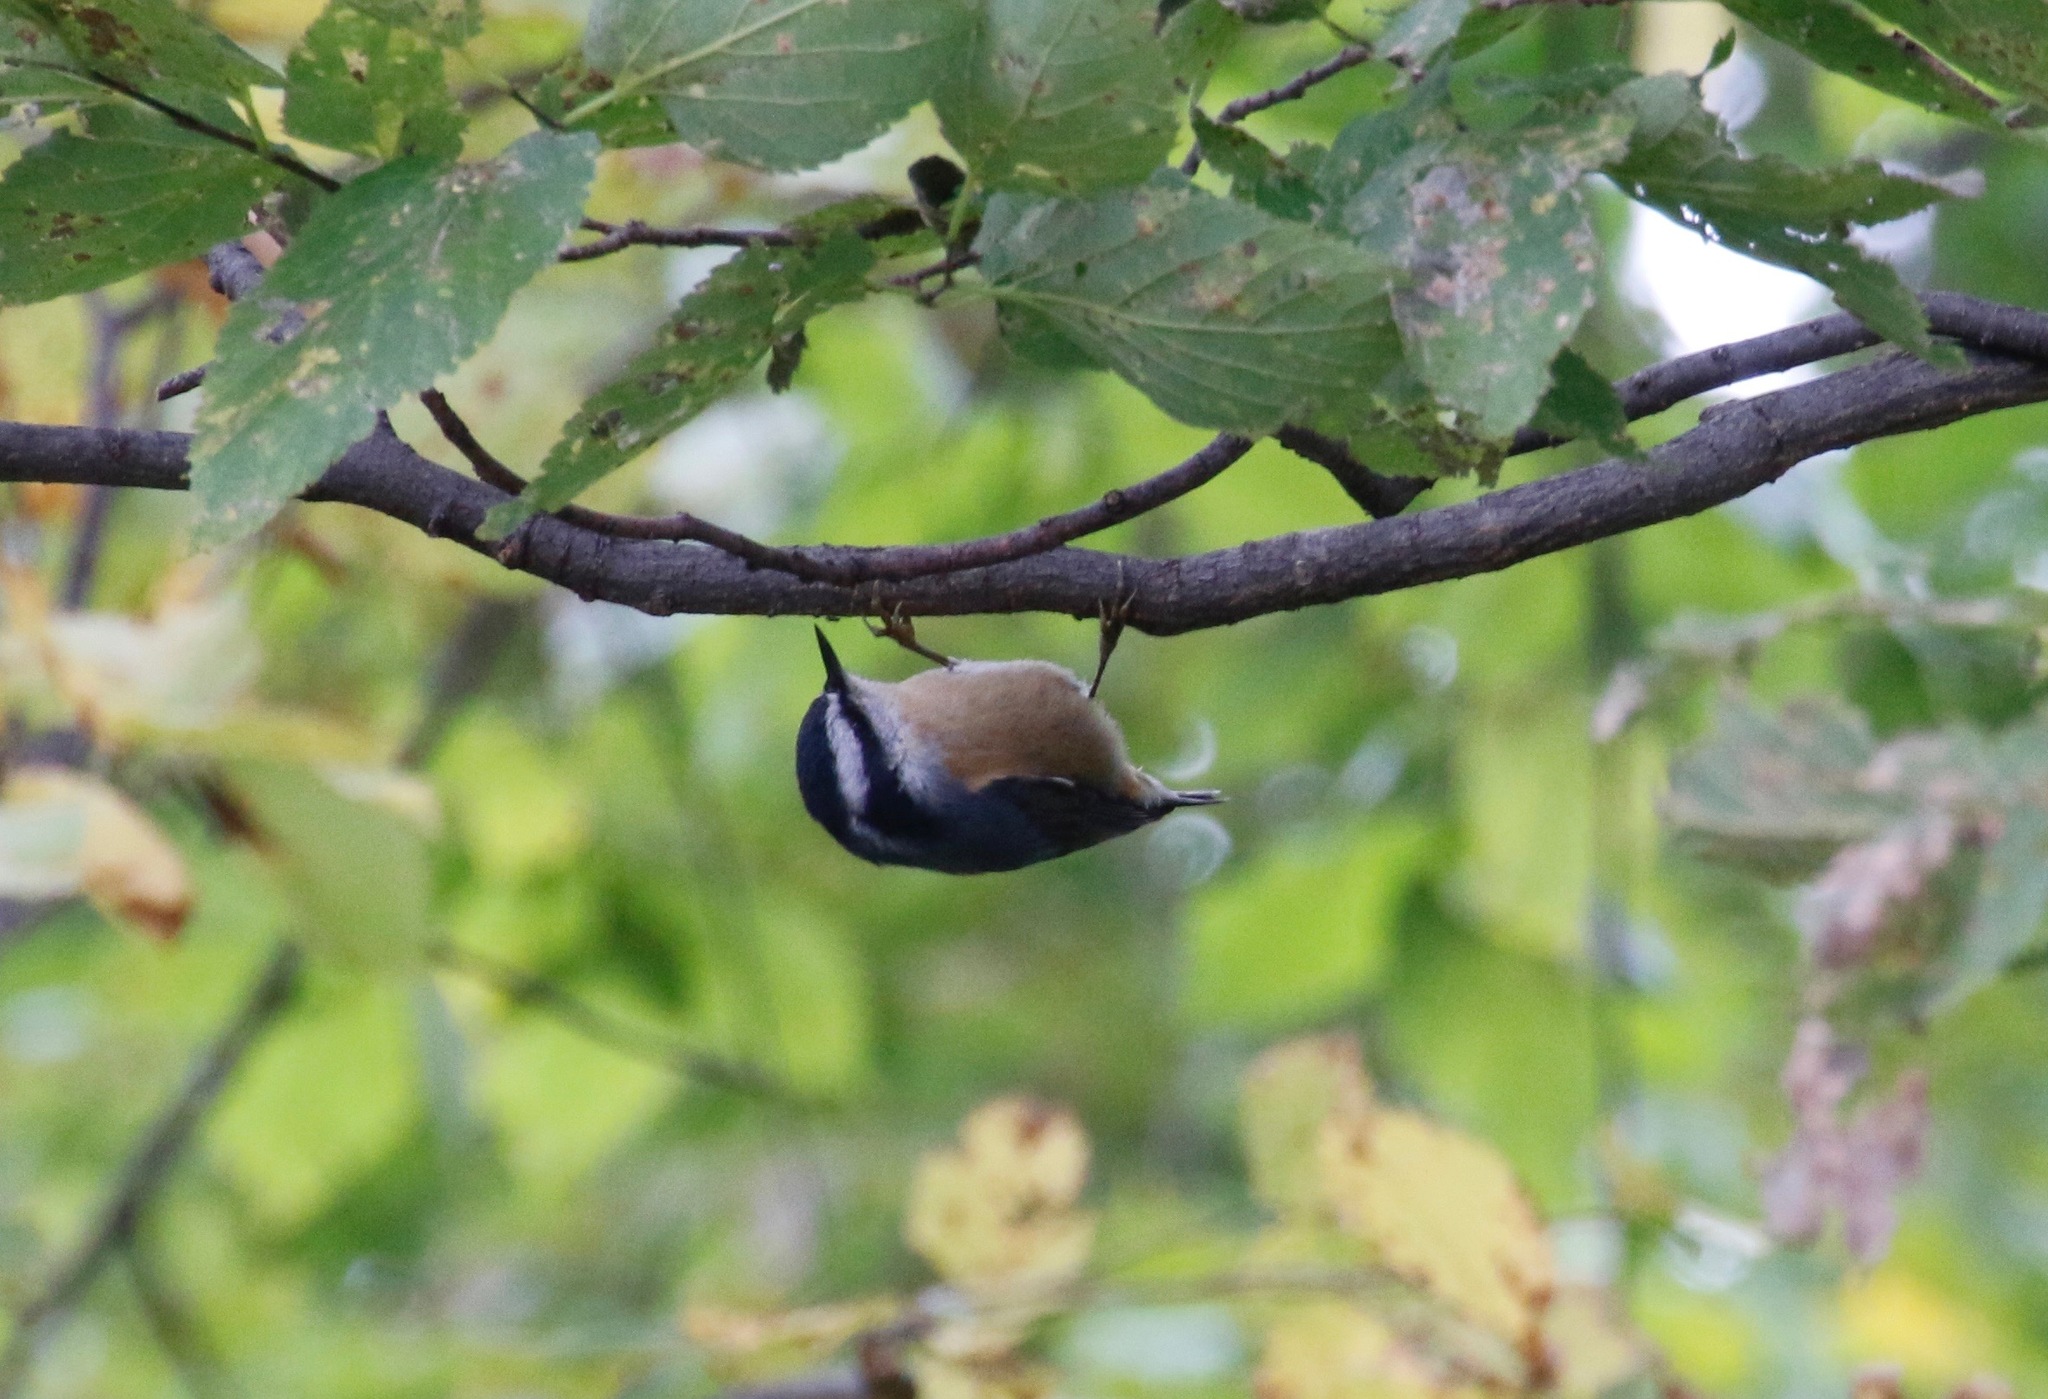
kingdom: Animalia
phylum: Chordata
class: Aves
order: Passeriformes
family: Sittidae
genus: Sitta
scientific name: Sitta canadensis
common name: Red-breasted nuthatch
